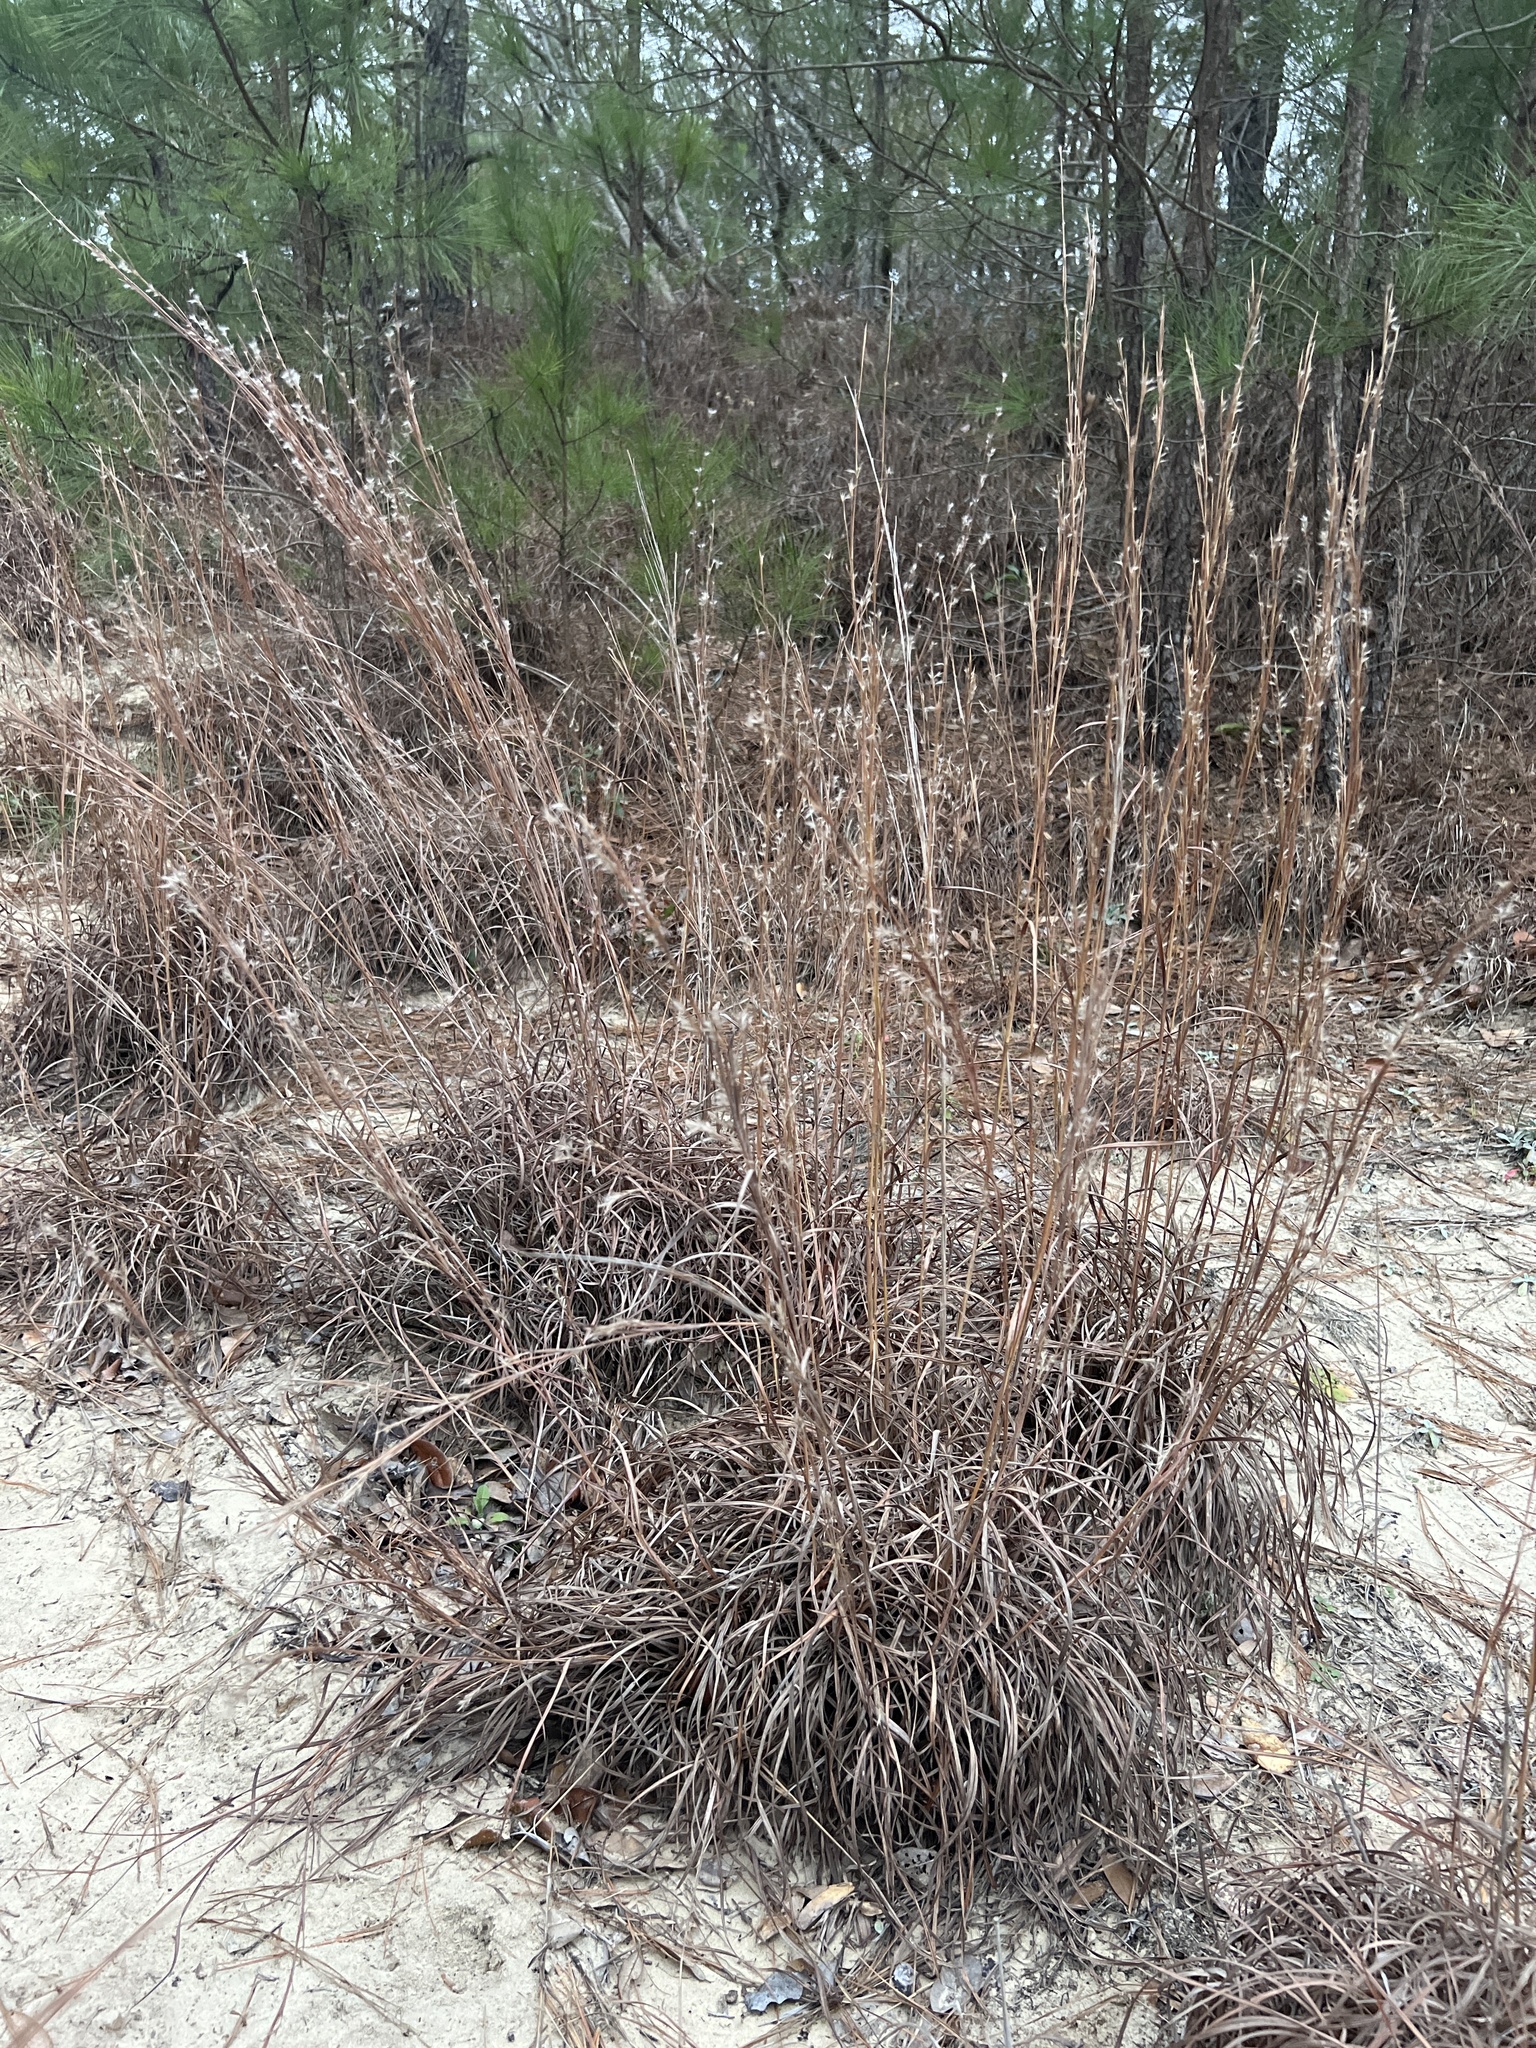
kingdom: Plantae
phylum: Tracheophyta
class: Liliopsida
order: Poales
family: Poaceae
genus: Schizachyrium
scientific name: Schizachyrium scoparium
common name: Little bluestem
